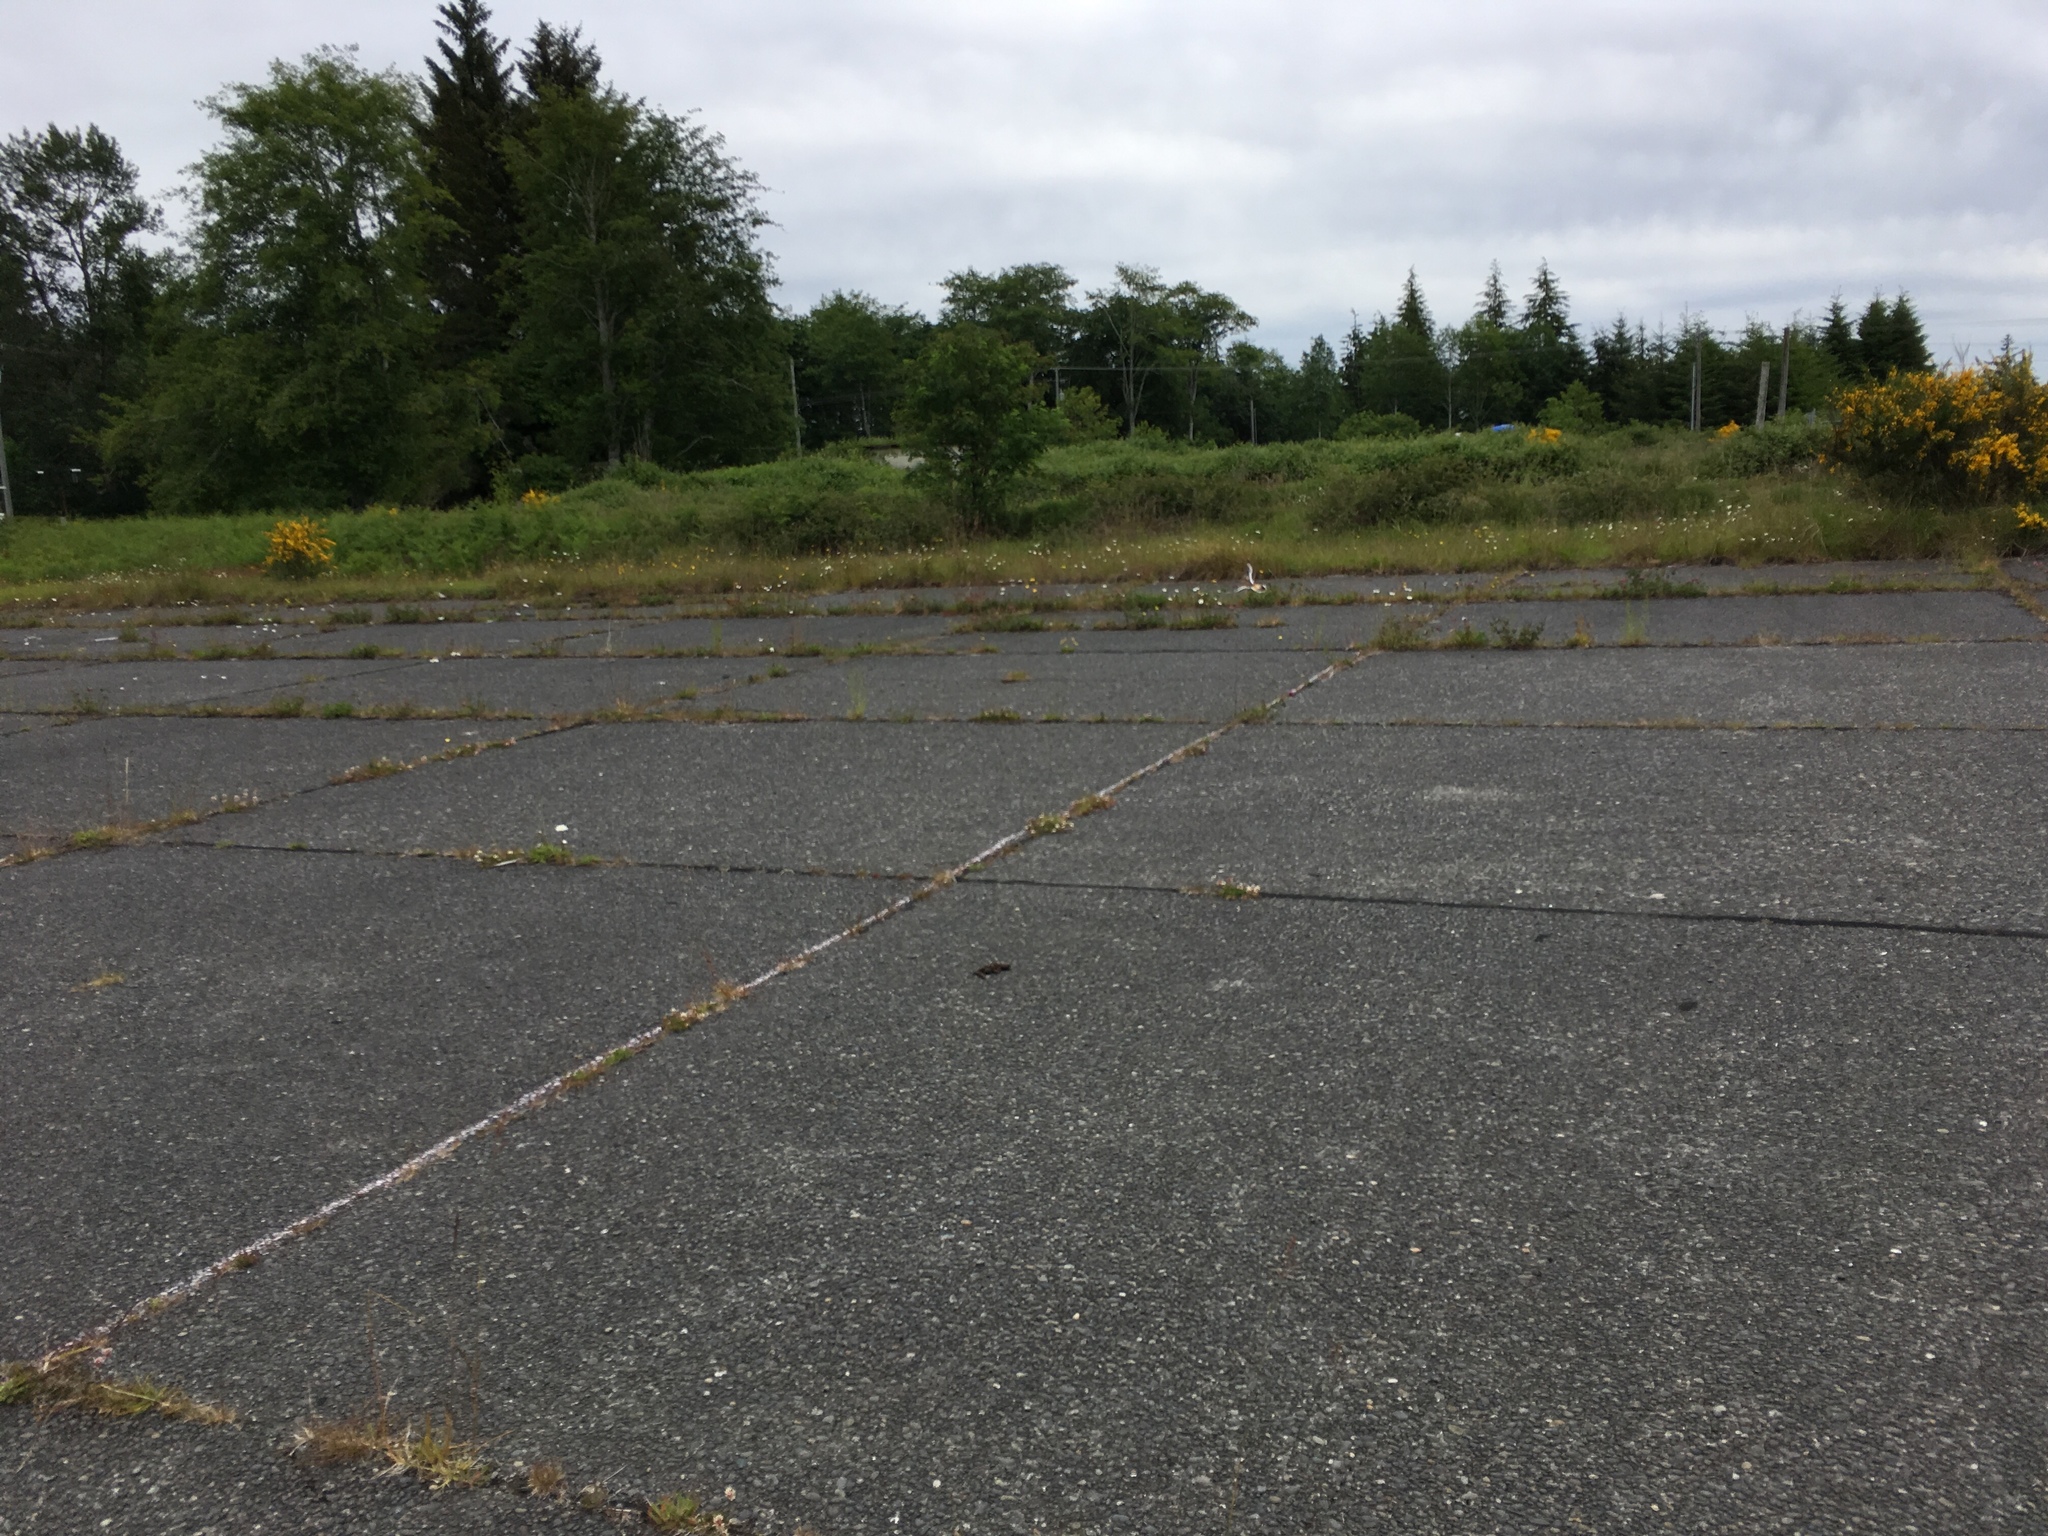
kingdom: Animalia
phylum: Chordata
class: Aves
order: Charadriiformes
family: Charadriidae
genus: Charadrius
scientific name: Charadrius vociferus
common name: Killdeer
